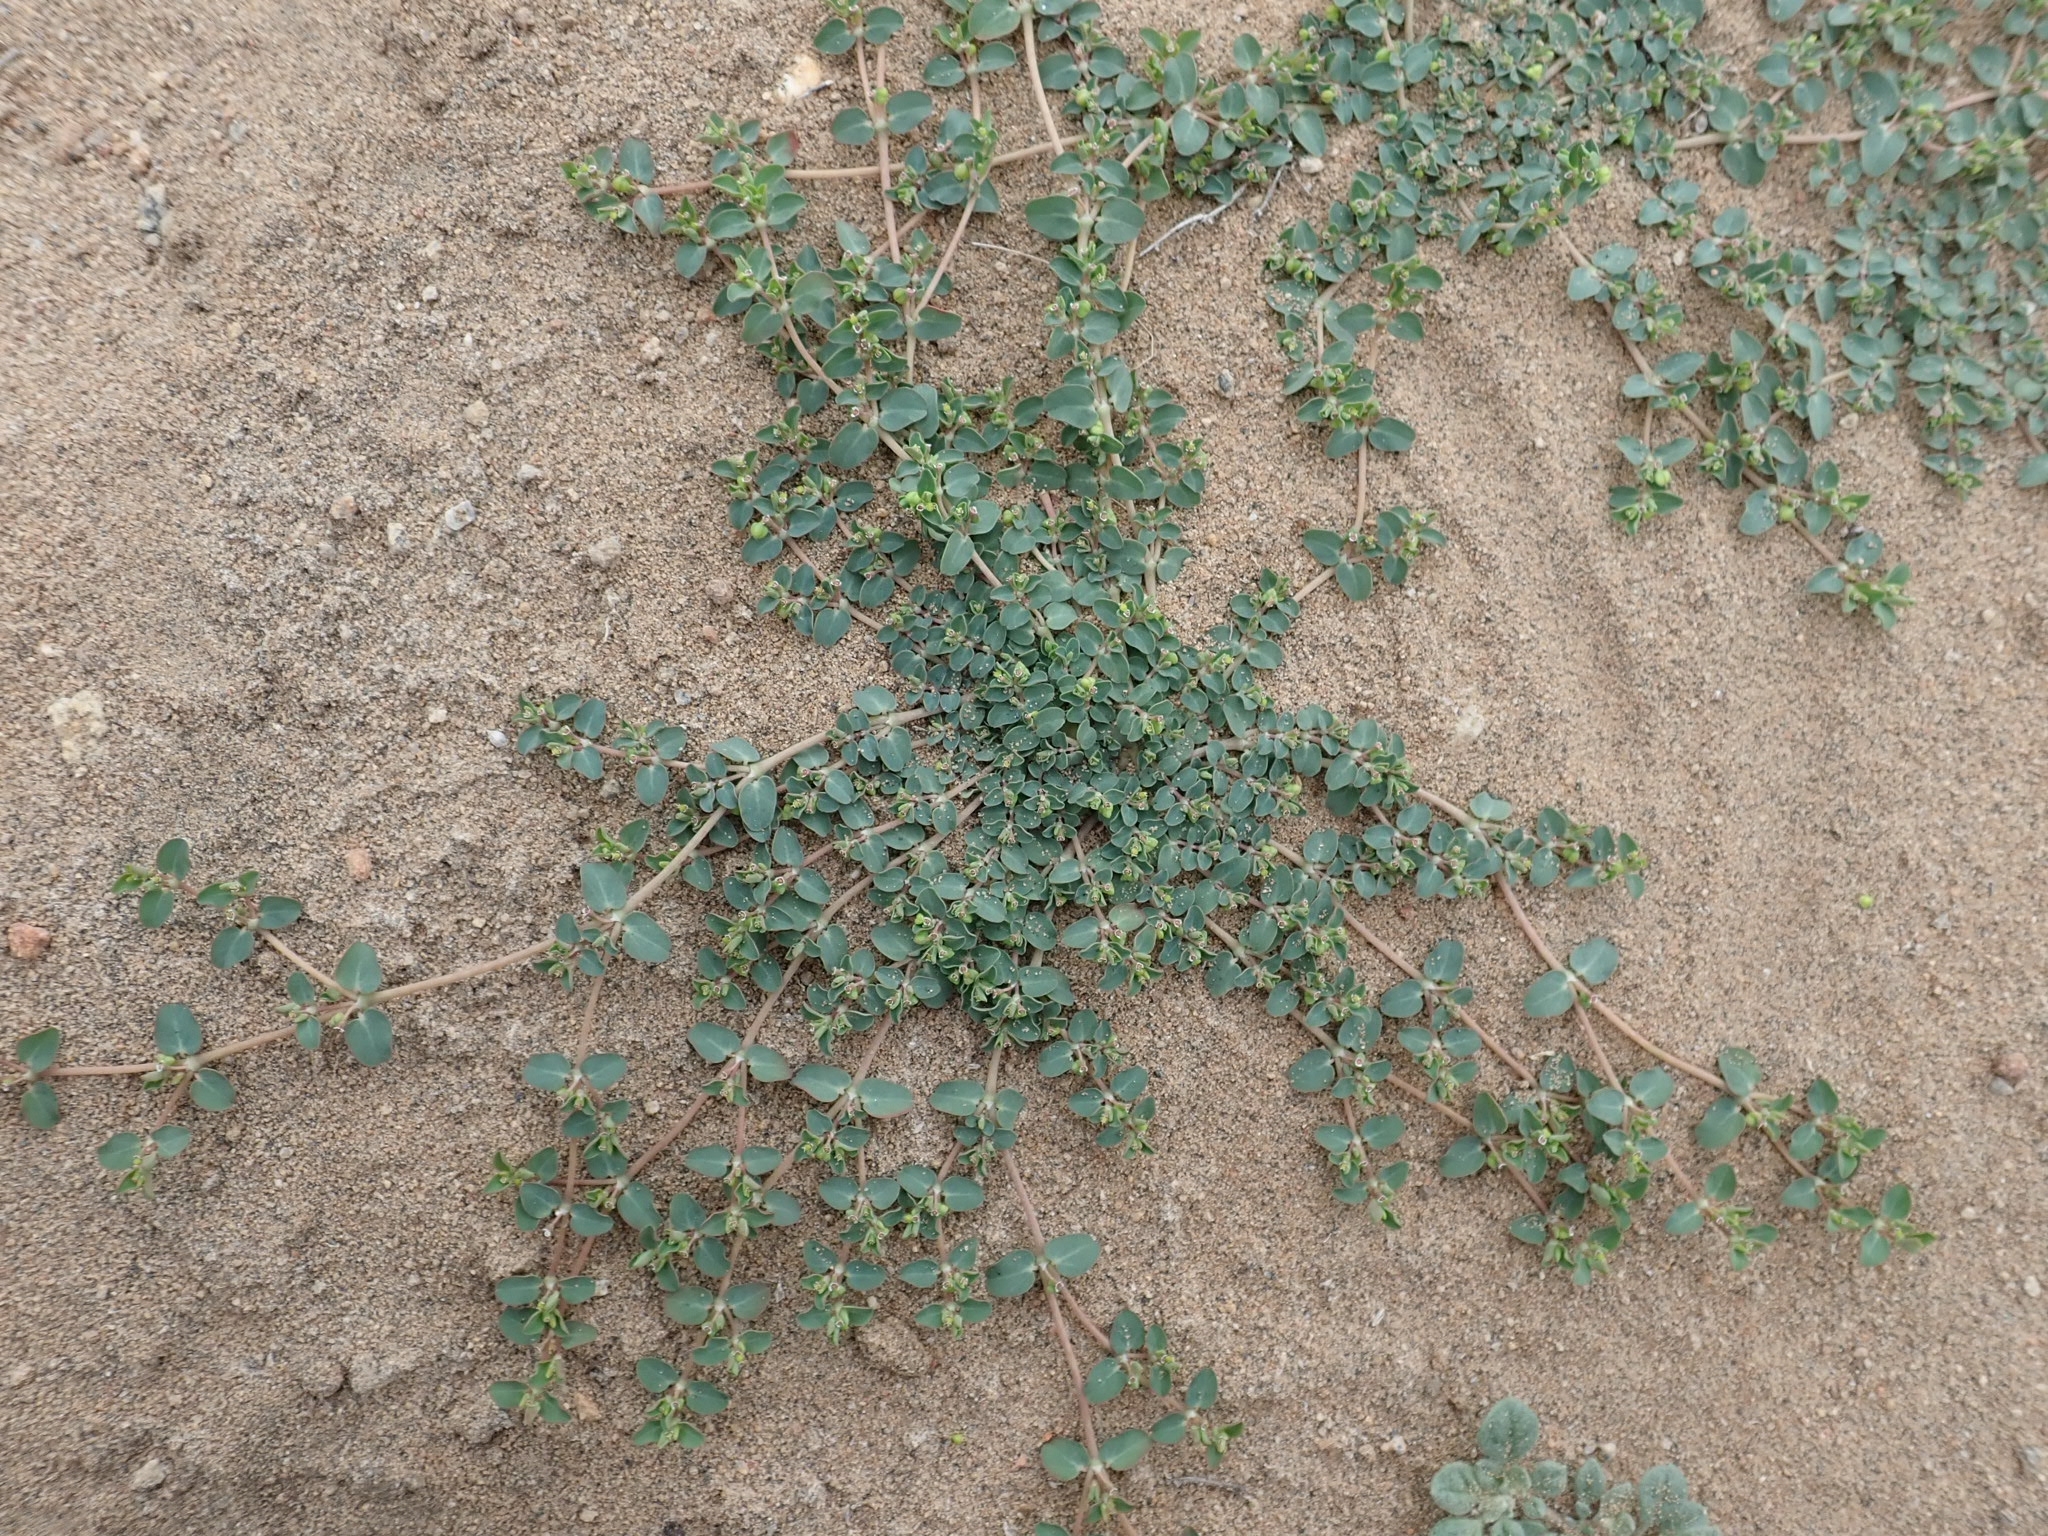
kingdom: Plantae
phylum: Tracheophyta
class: Magnoliopsida
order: Malpighiales
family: Euphorbiaceae
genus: Euphorbia
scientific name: Euphorbia serpens
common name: Matted sandmat
